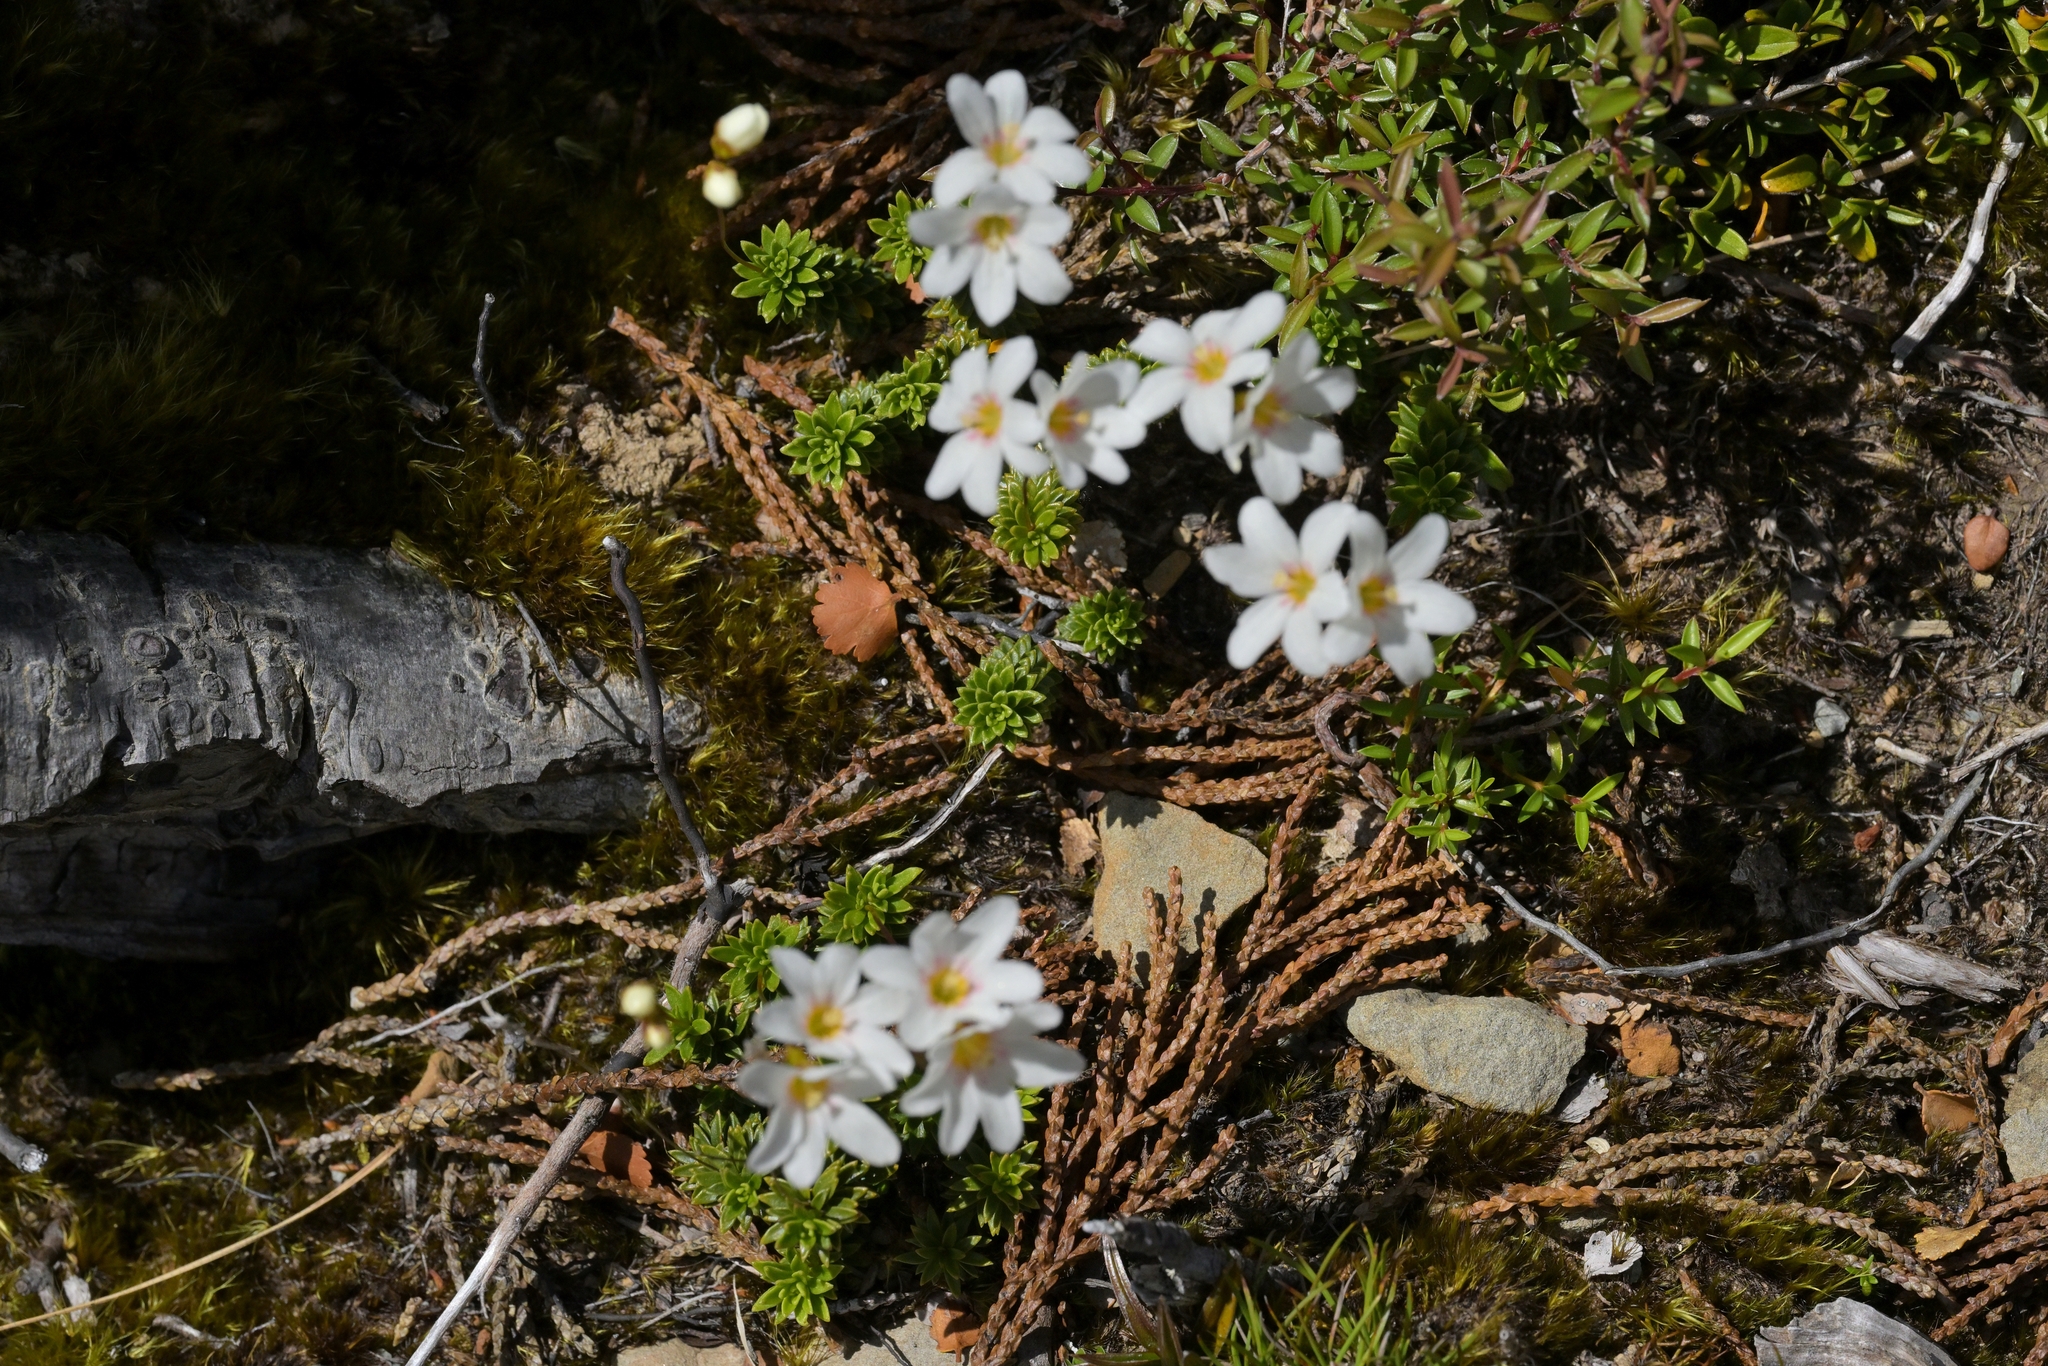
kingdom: Plantae
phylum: Tracheophyta
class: Magnoliopsida
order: Asterales
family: Stylidiaceae
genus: Forstera
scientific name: Forstera mackayi
